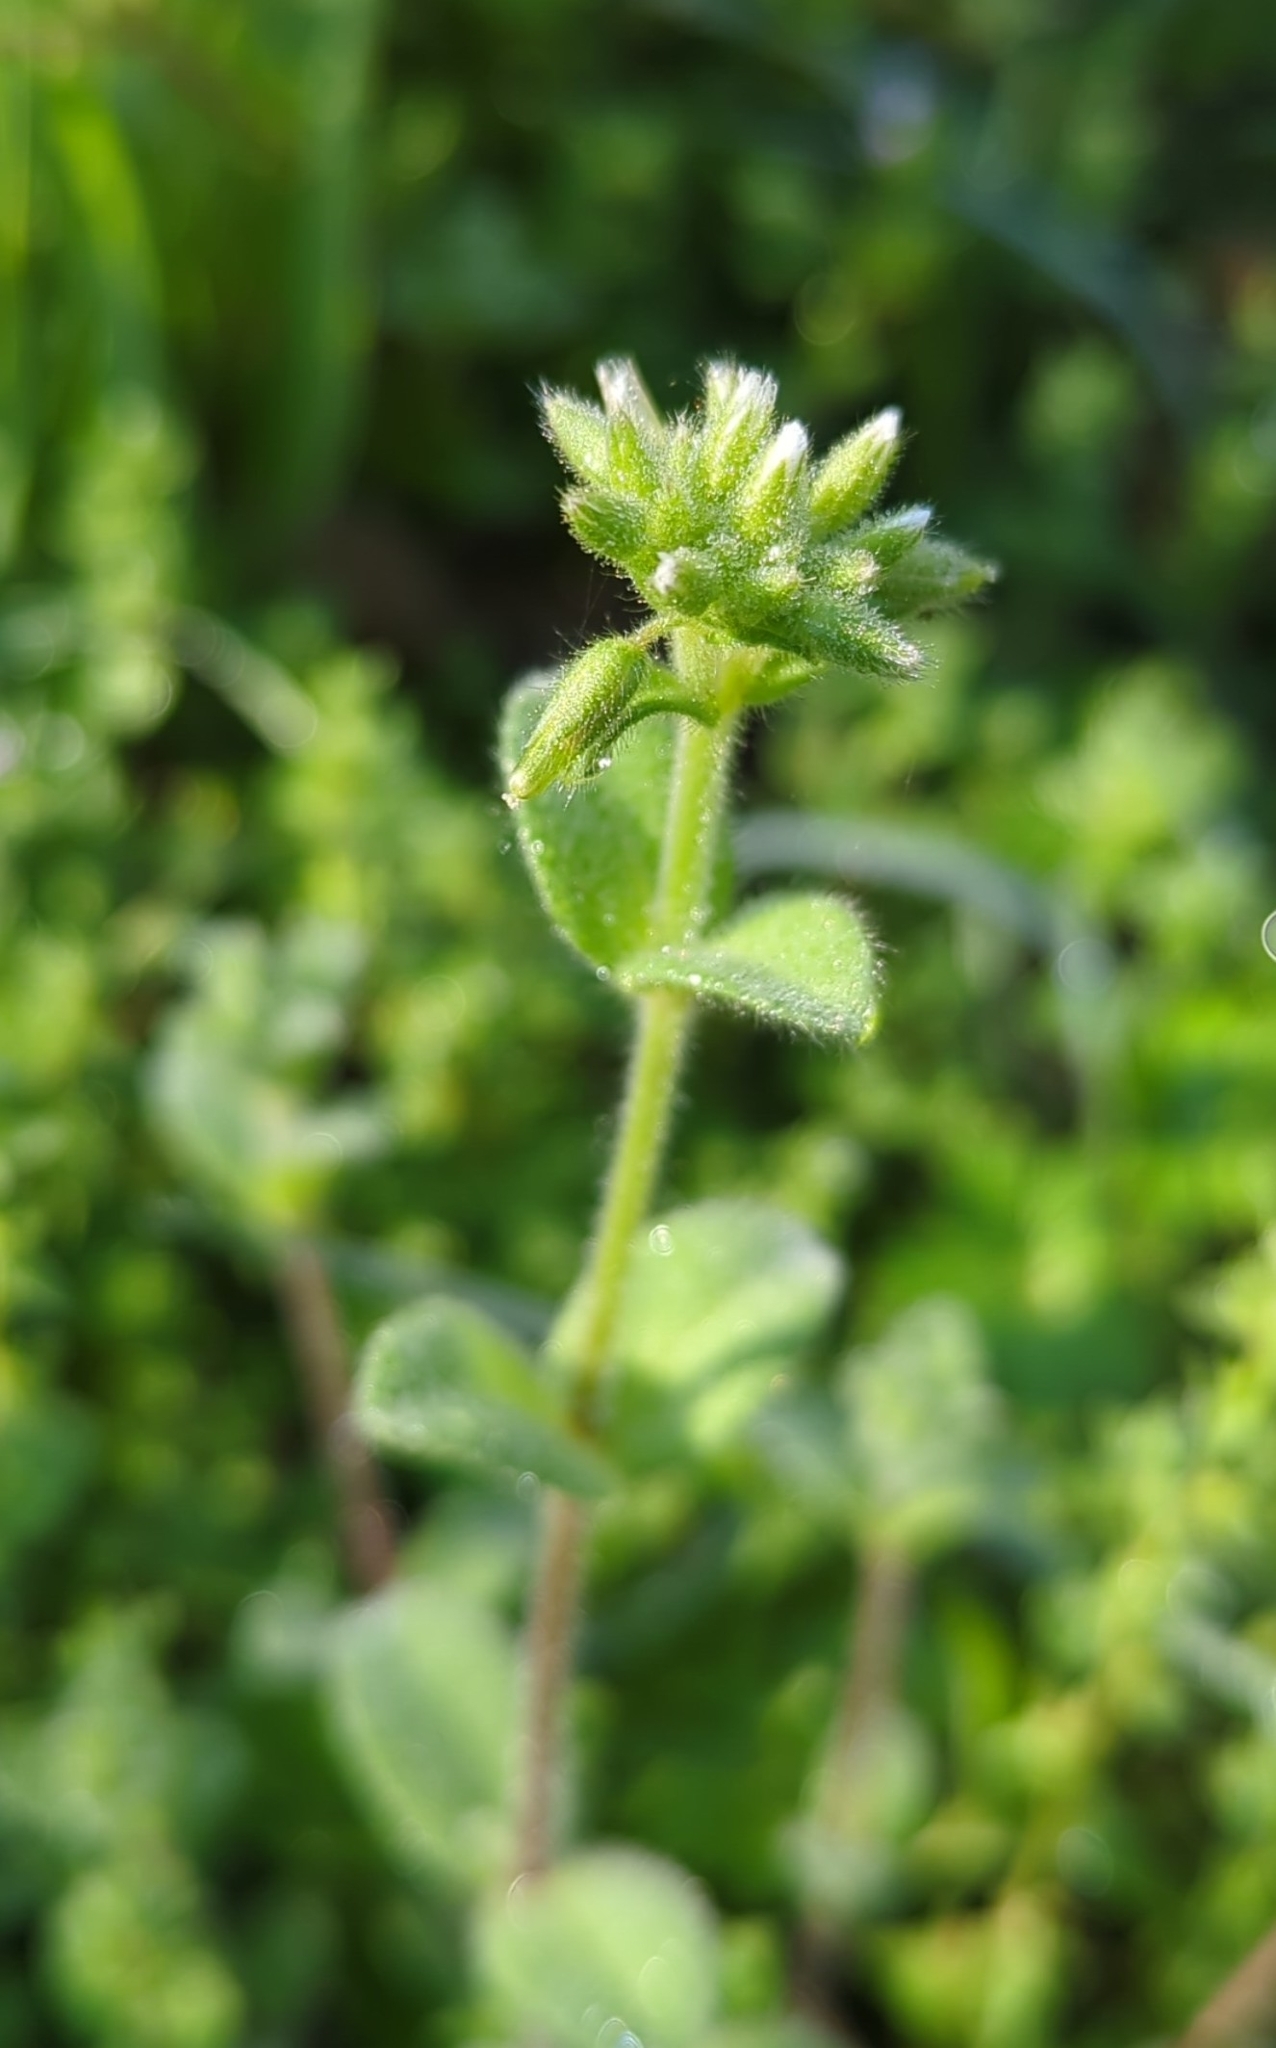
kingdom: Plantae
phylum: Tracheophyta
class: Magnoliopsida
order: Caryophyllales
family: Caryophyllaceae
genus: Cerastium
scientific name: Cerastium glomeratum
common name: Sticky chickweed
